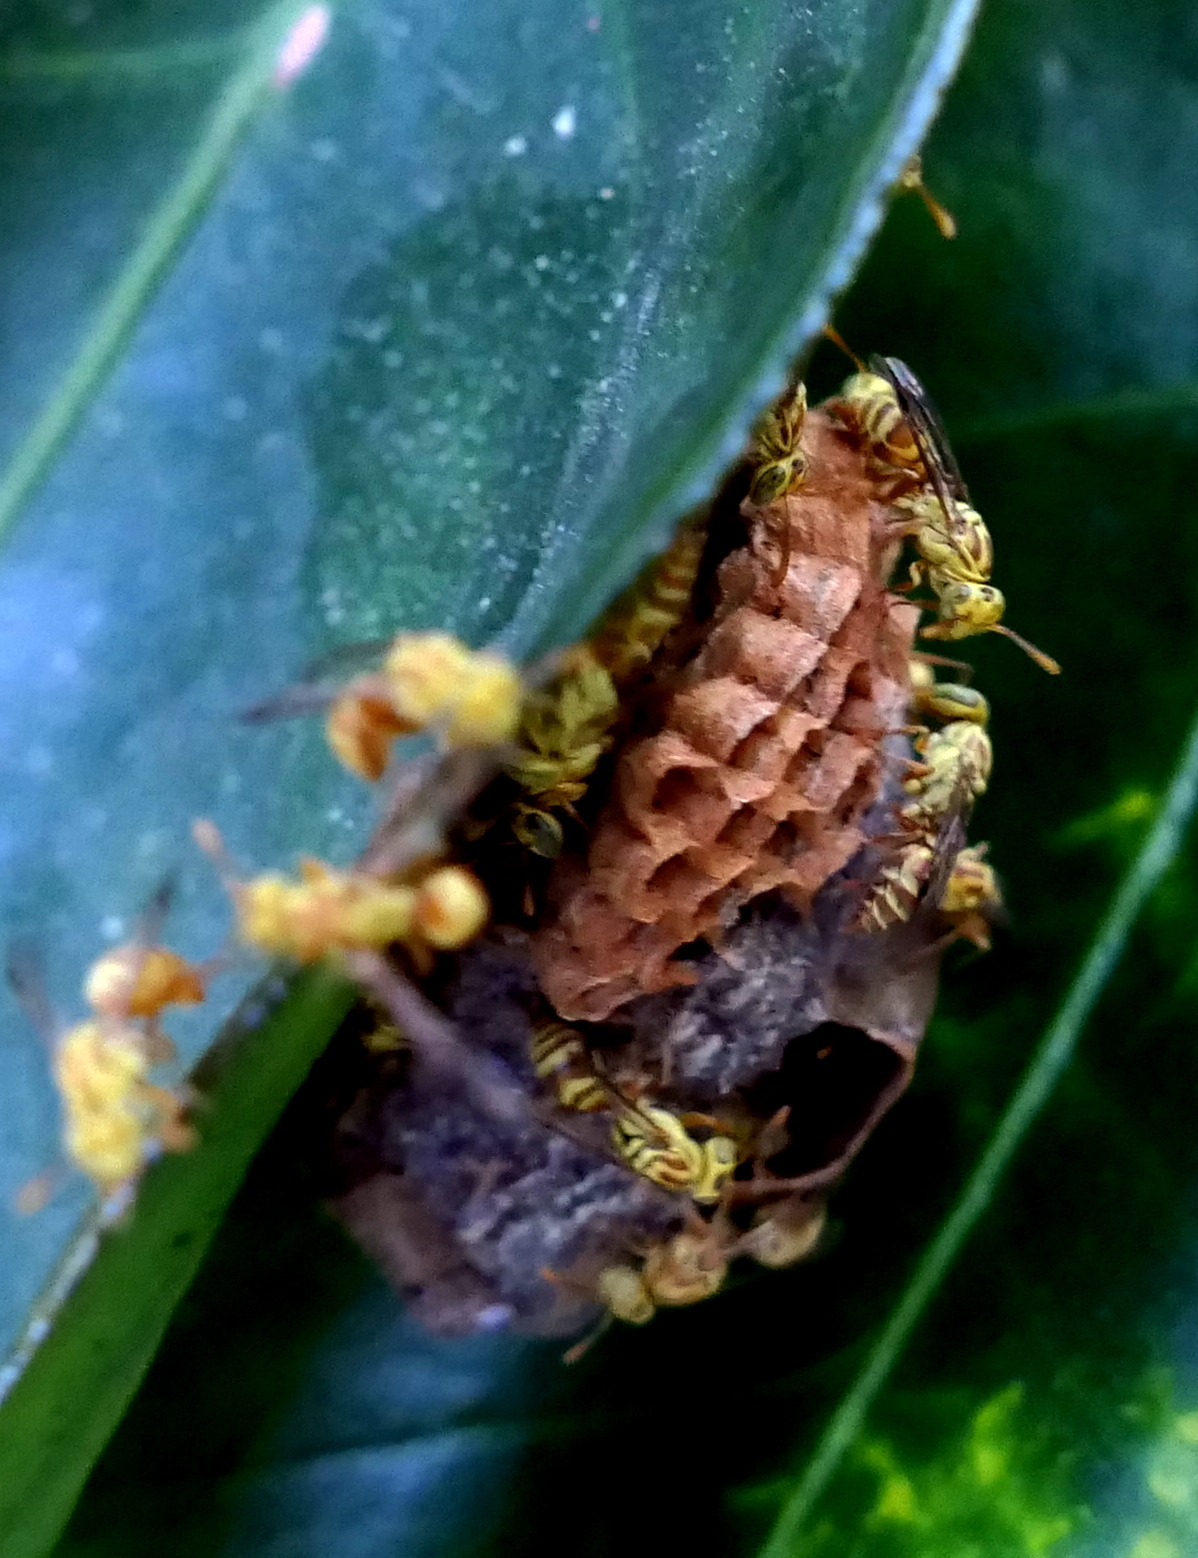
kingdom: Animalia
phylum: Arthropoda
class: Insecta
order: Hymenoptera
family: Vespidae
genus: Protopolybia
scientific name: Protopolybia potiguara
